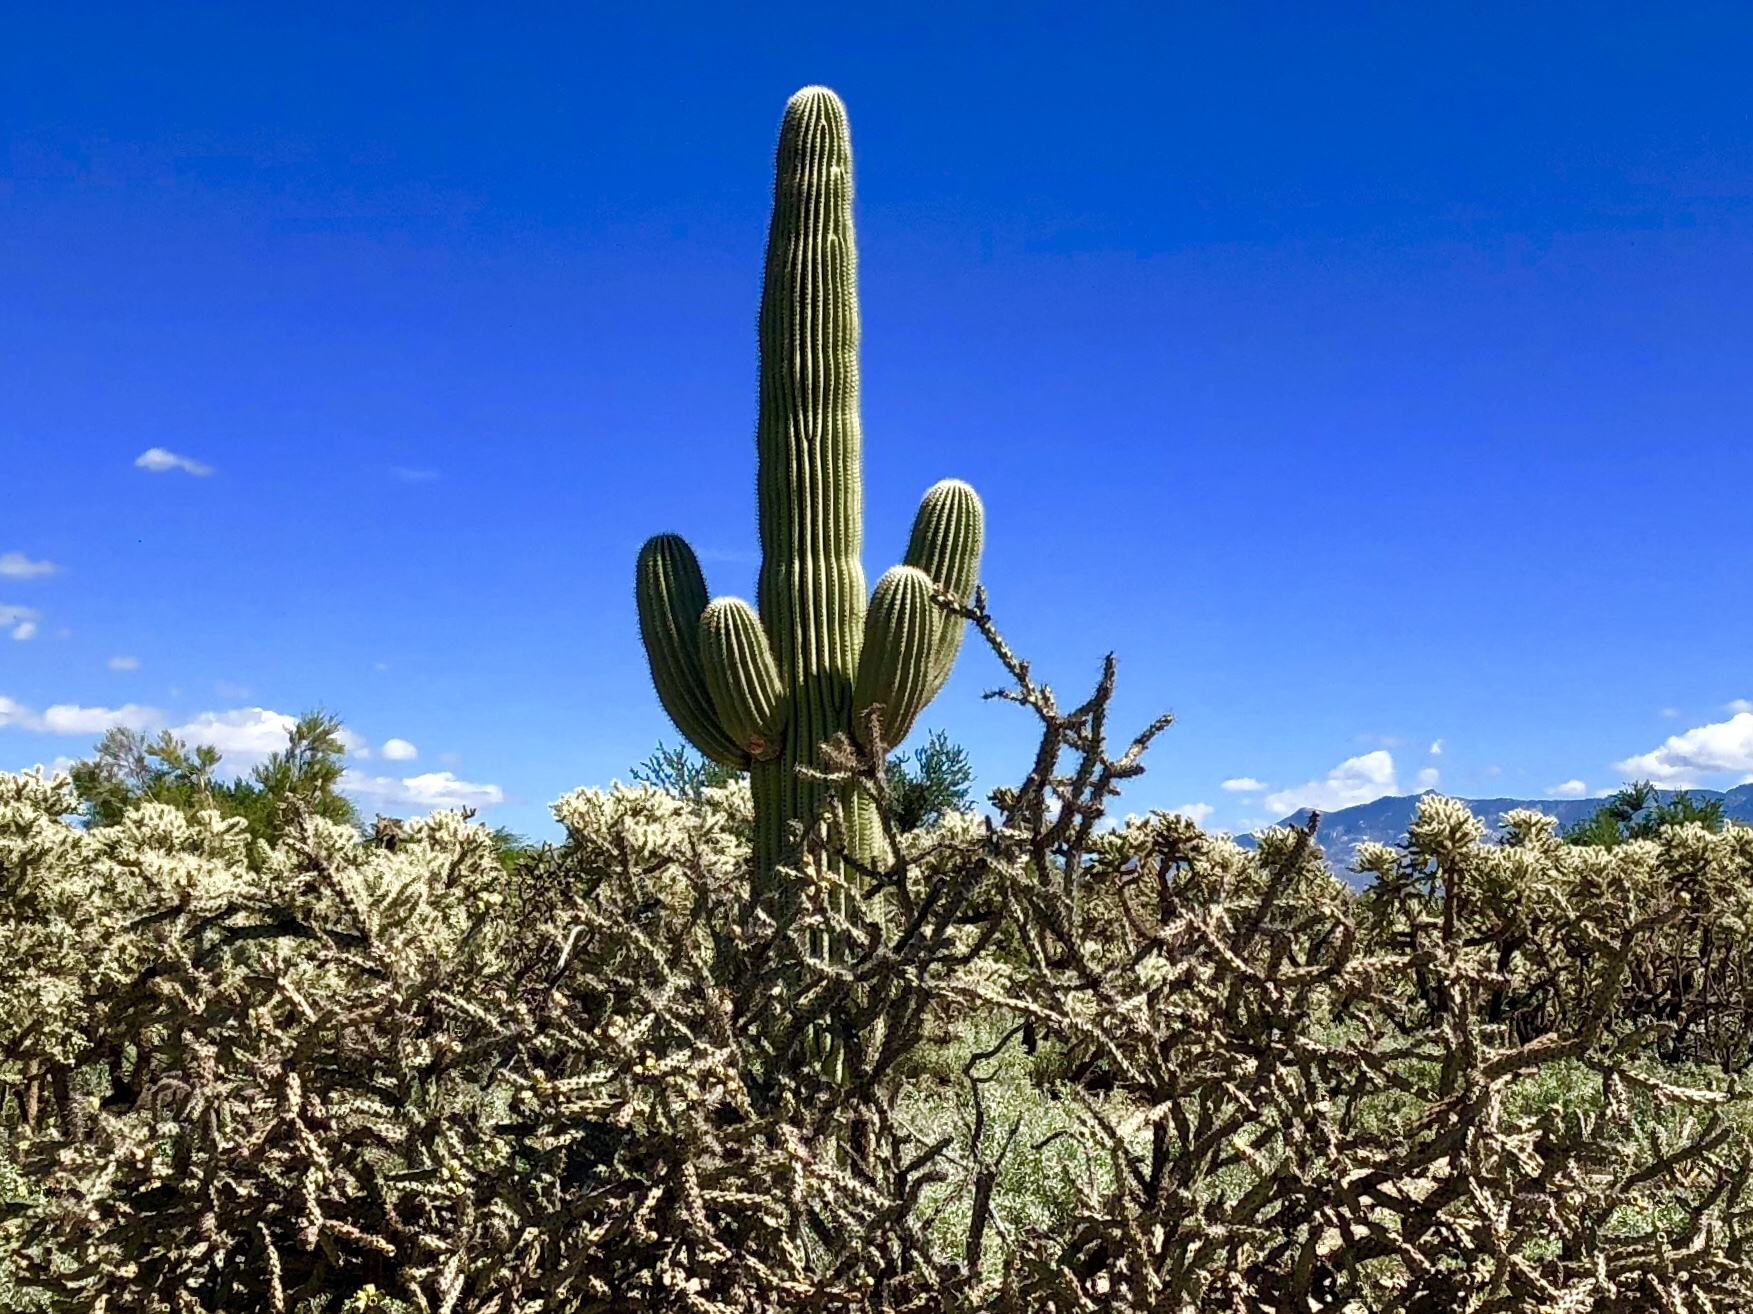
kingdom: Plantae
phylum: Tracheophyta
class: Magnoliopsida
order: Caryophyllales
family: Cactaceae
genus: Carnegiea
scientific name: Carnegiea gigantea
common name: Saguaro
